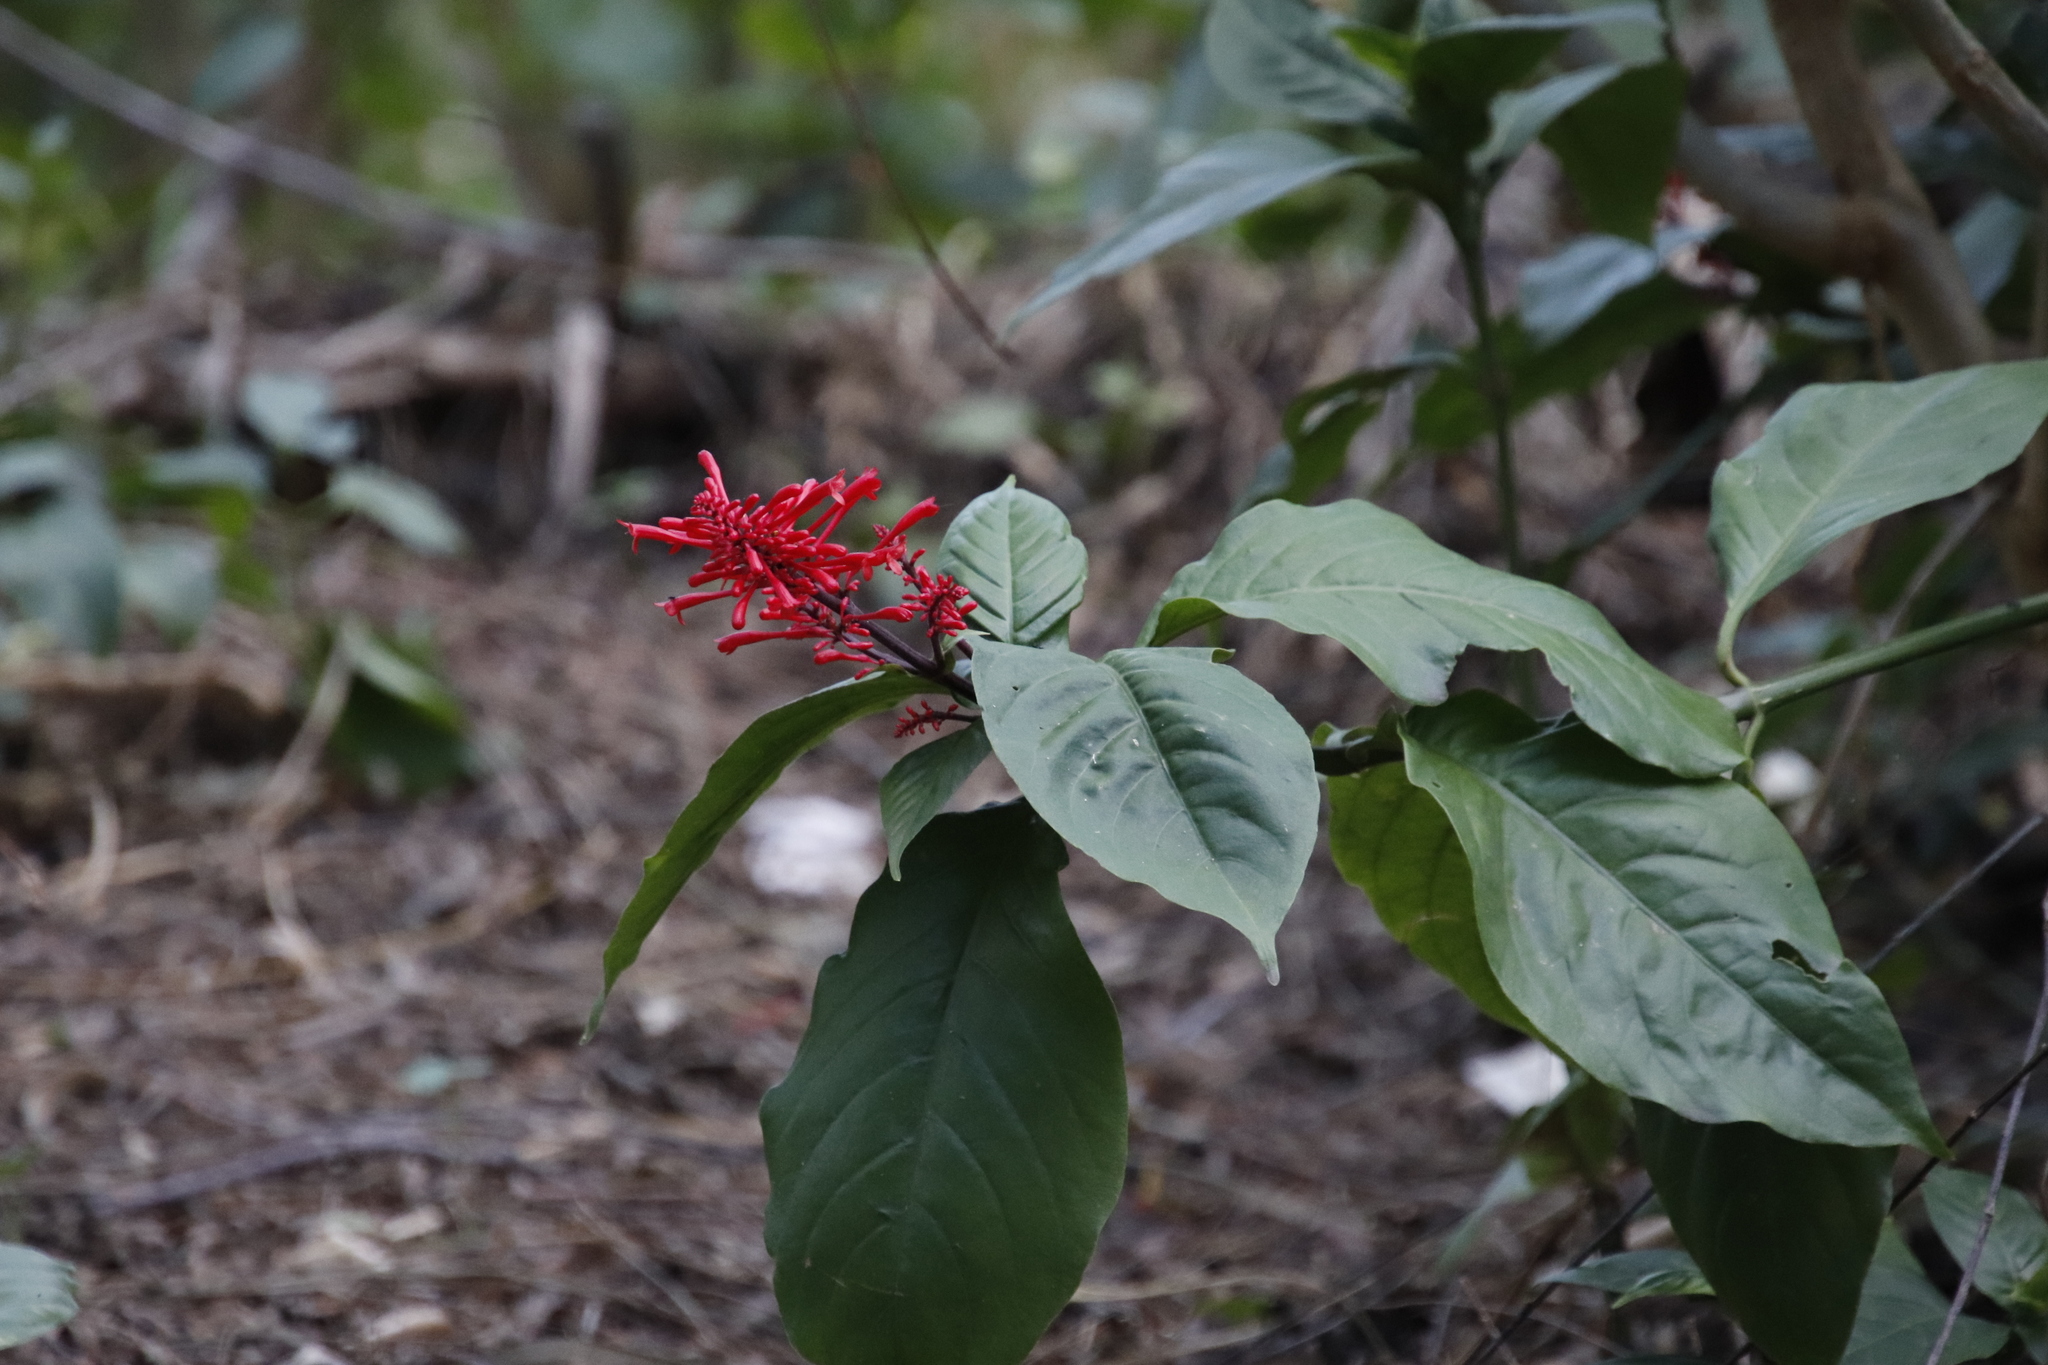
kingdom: Plantae
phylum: Tracheophyta
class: Magnoliopsida
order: Lamiales
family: Acanthaceae
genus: Odontonema
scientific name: Odontonema tubaeforme
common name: Firespike
